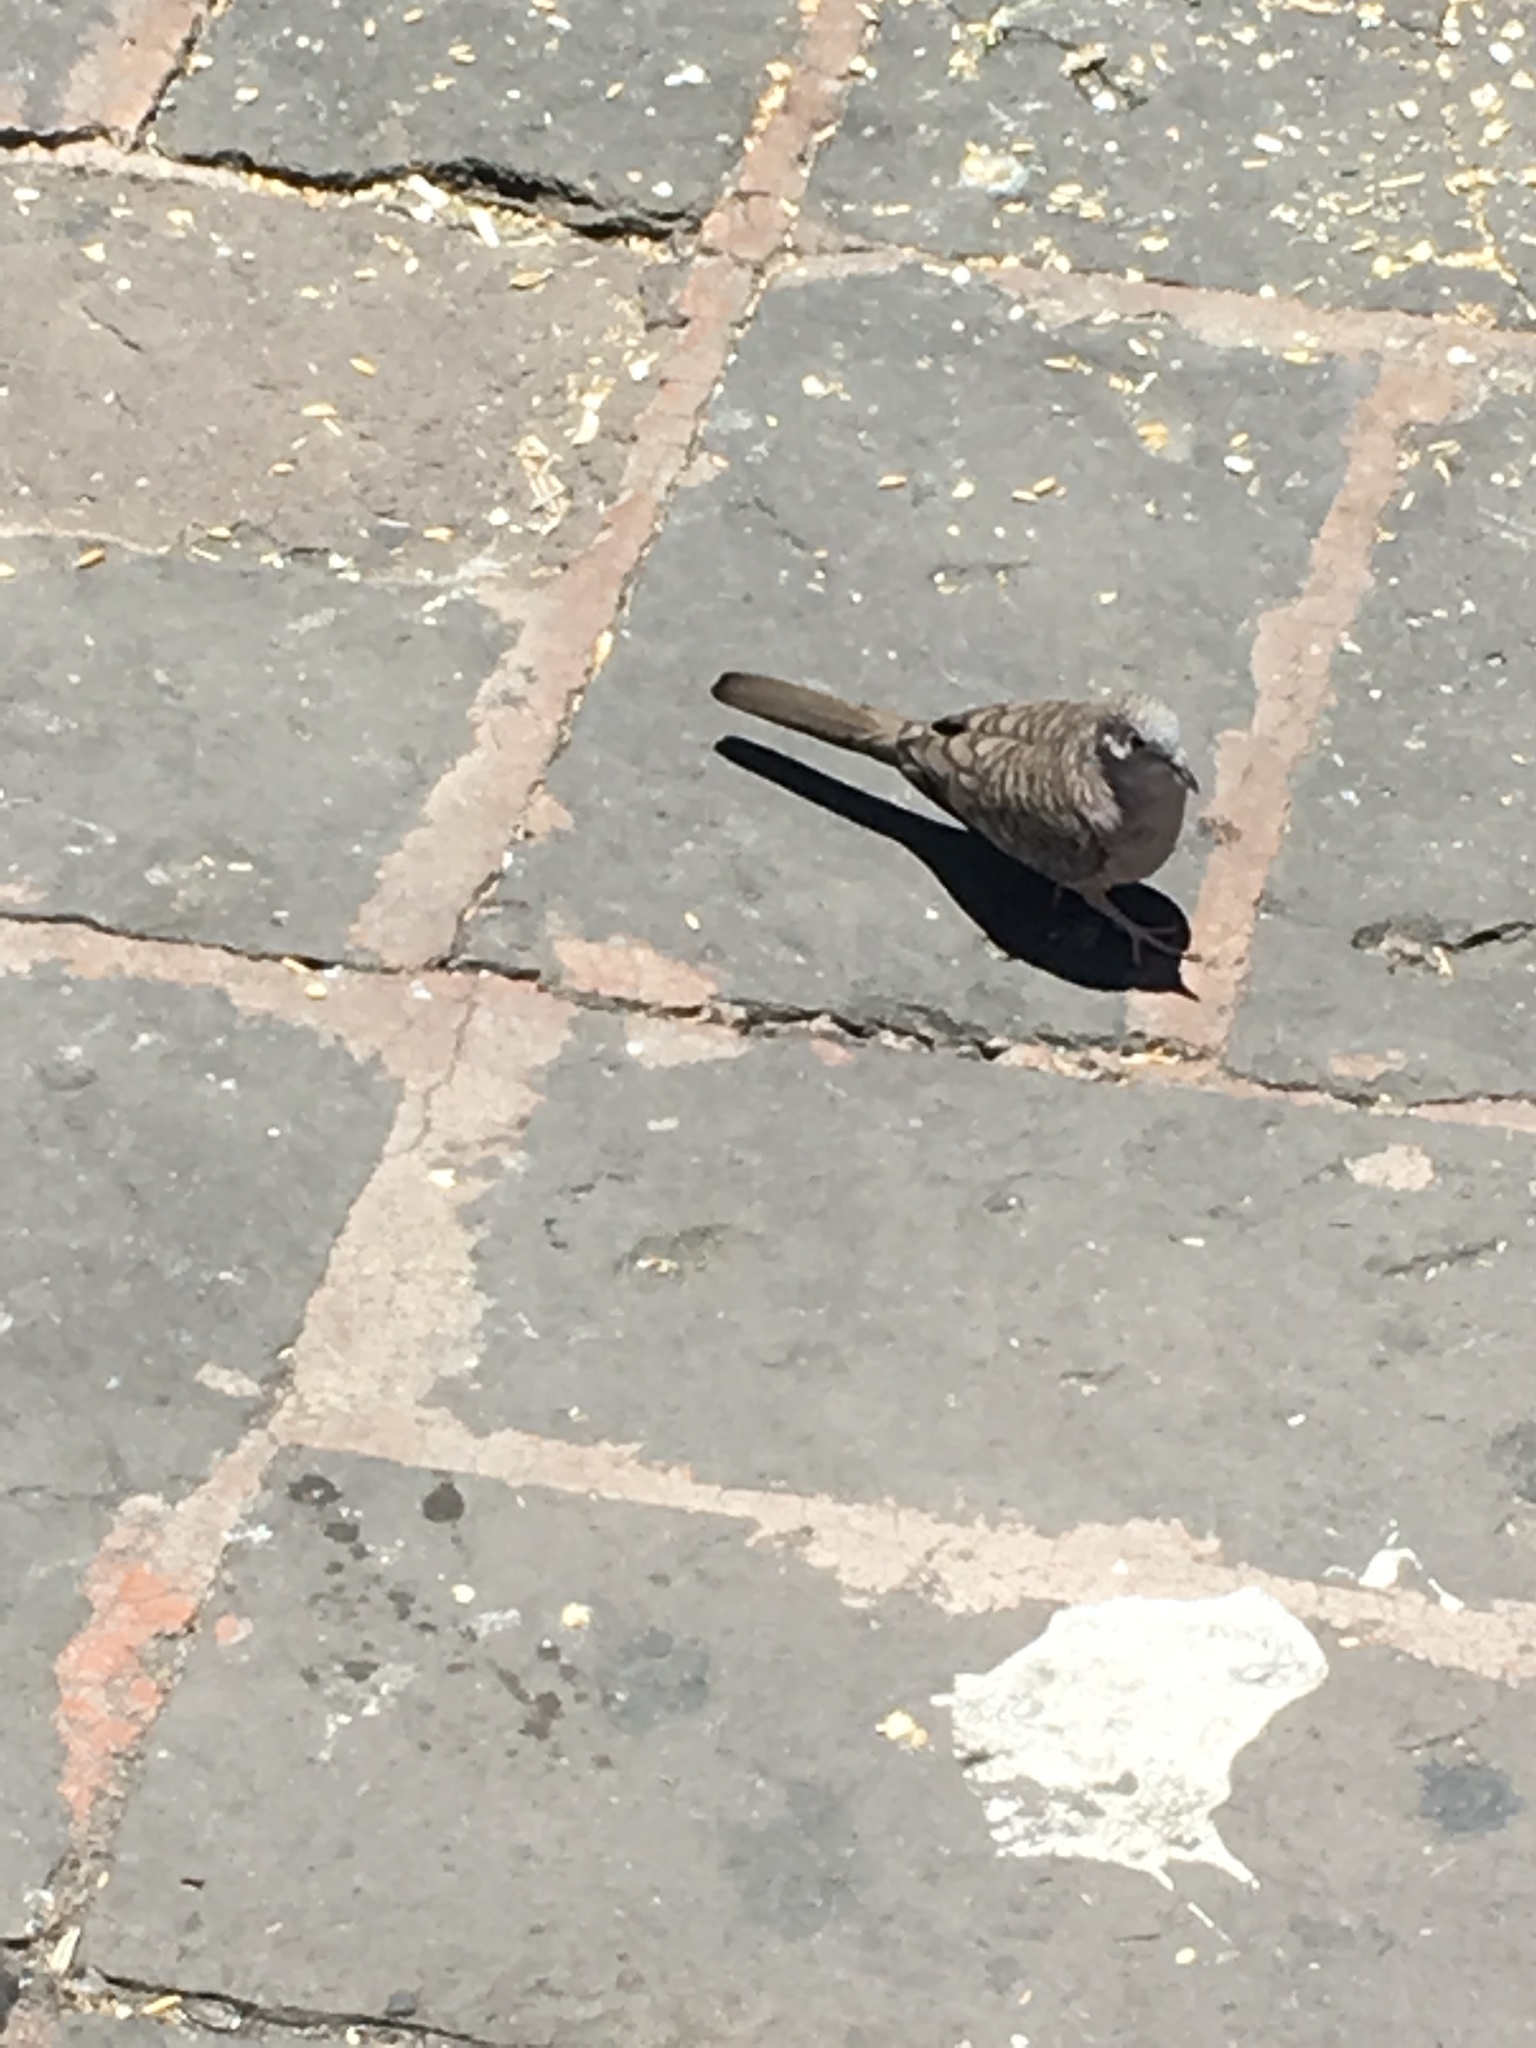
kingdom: Animalia
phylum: Chordata
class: Aves
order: Columbiformes
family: Columbidae
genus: Columbina
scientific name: Columbina inca
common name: Inca dove
